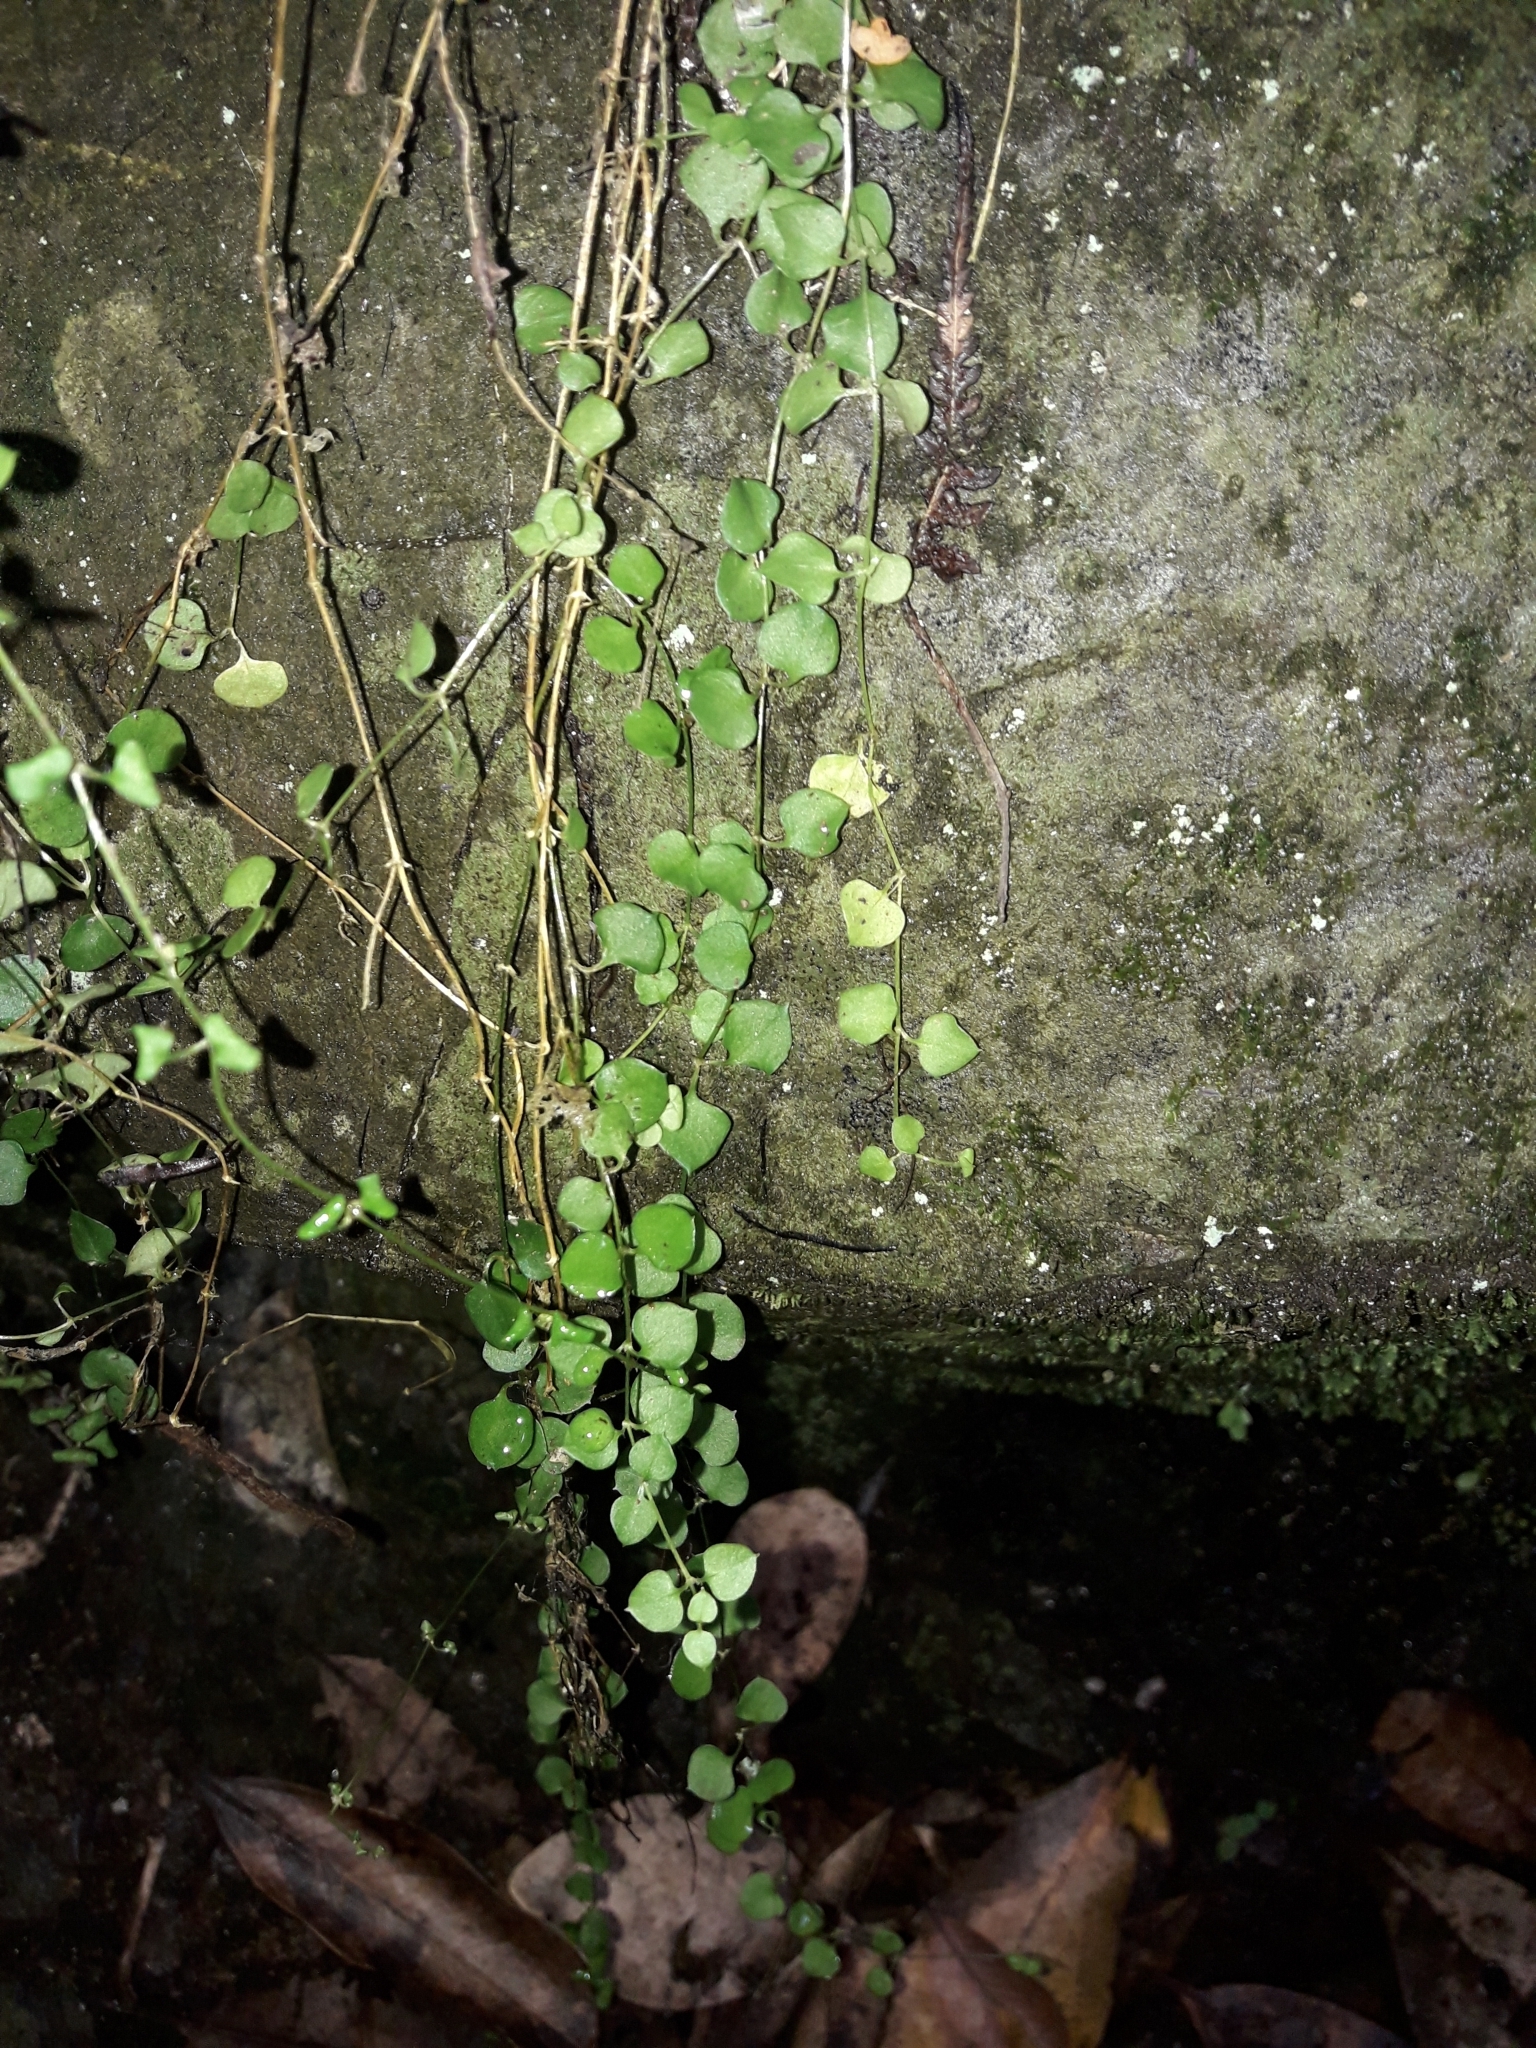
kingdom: Plantae
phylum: Tracheophyta
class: Magnoliopsida
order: Caryophyllales
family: Caryophyllaceae
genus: Stellaria
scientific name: Stellaria parviflora
